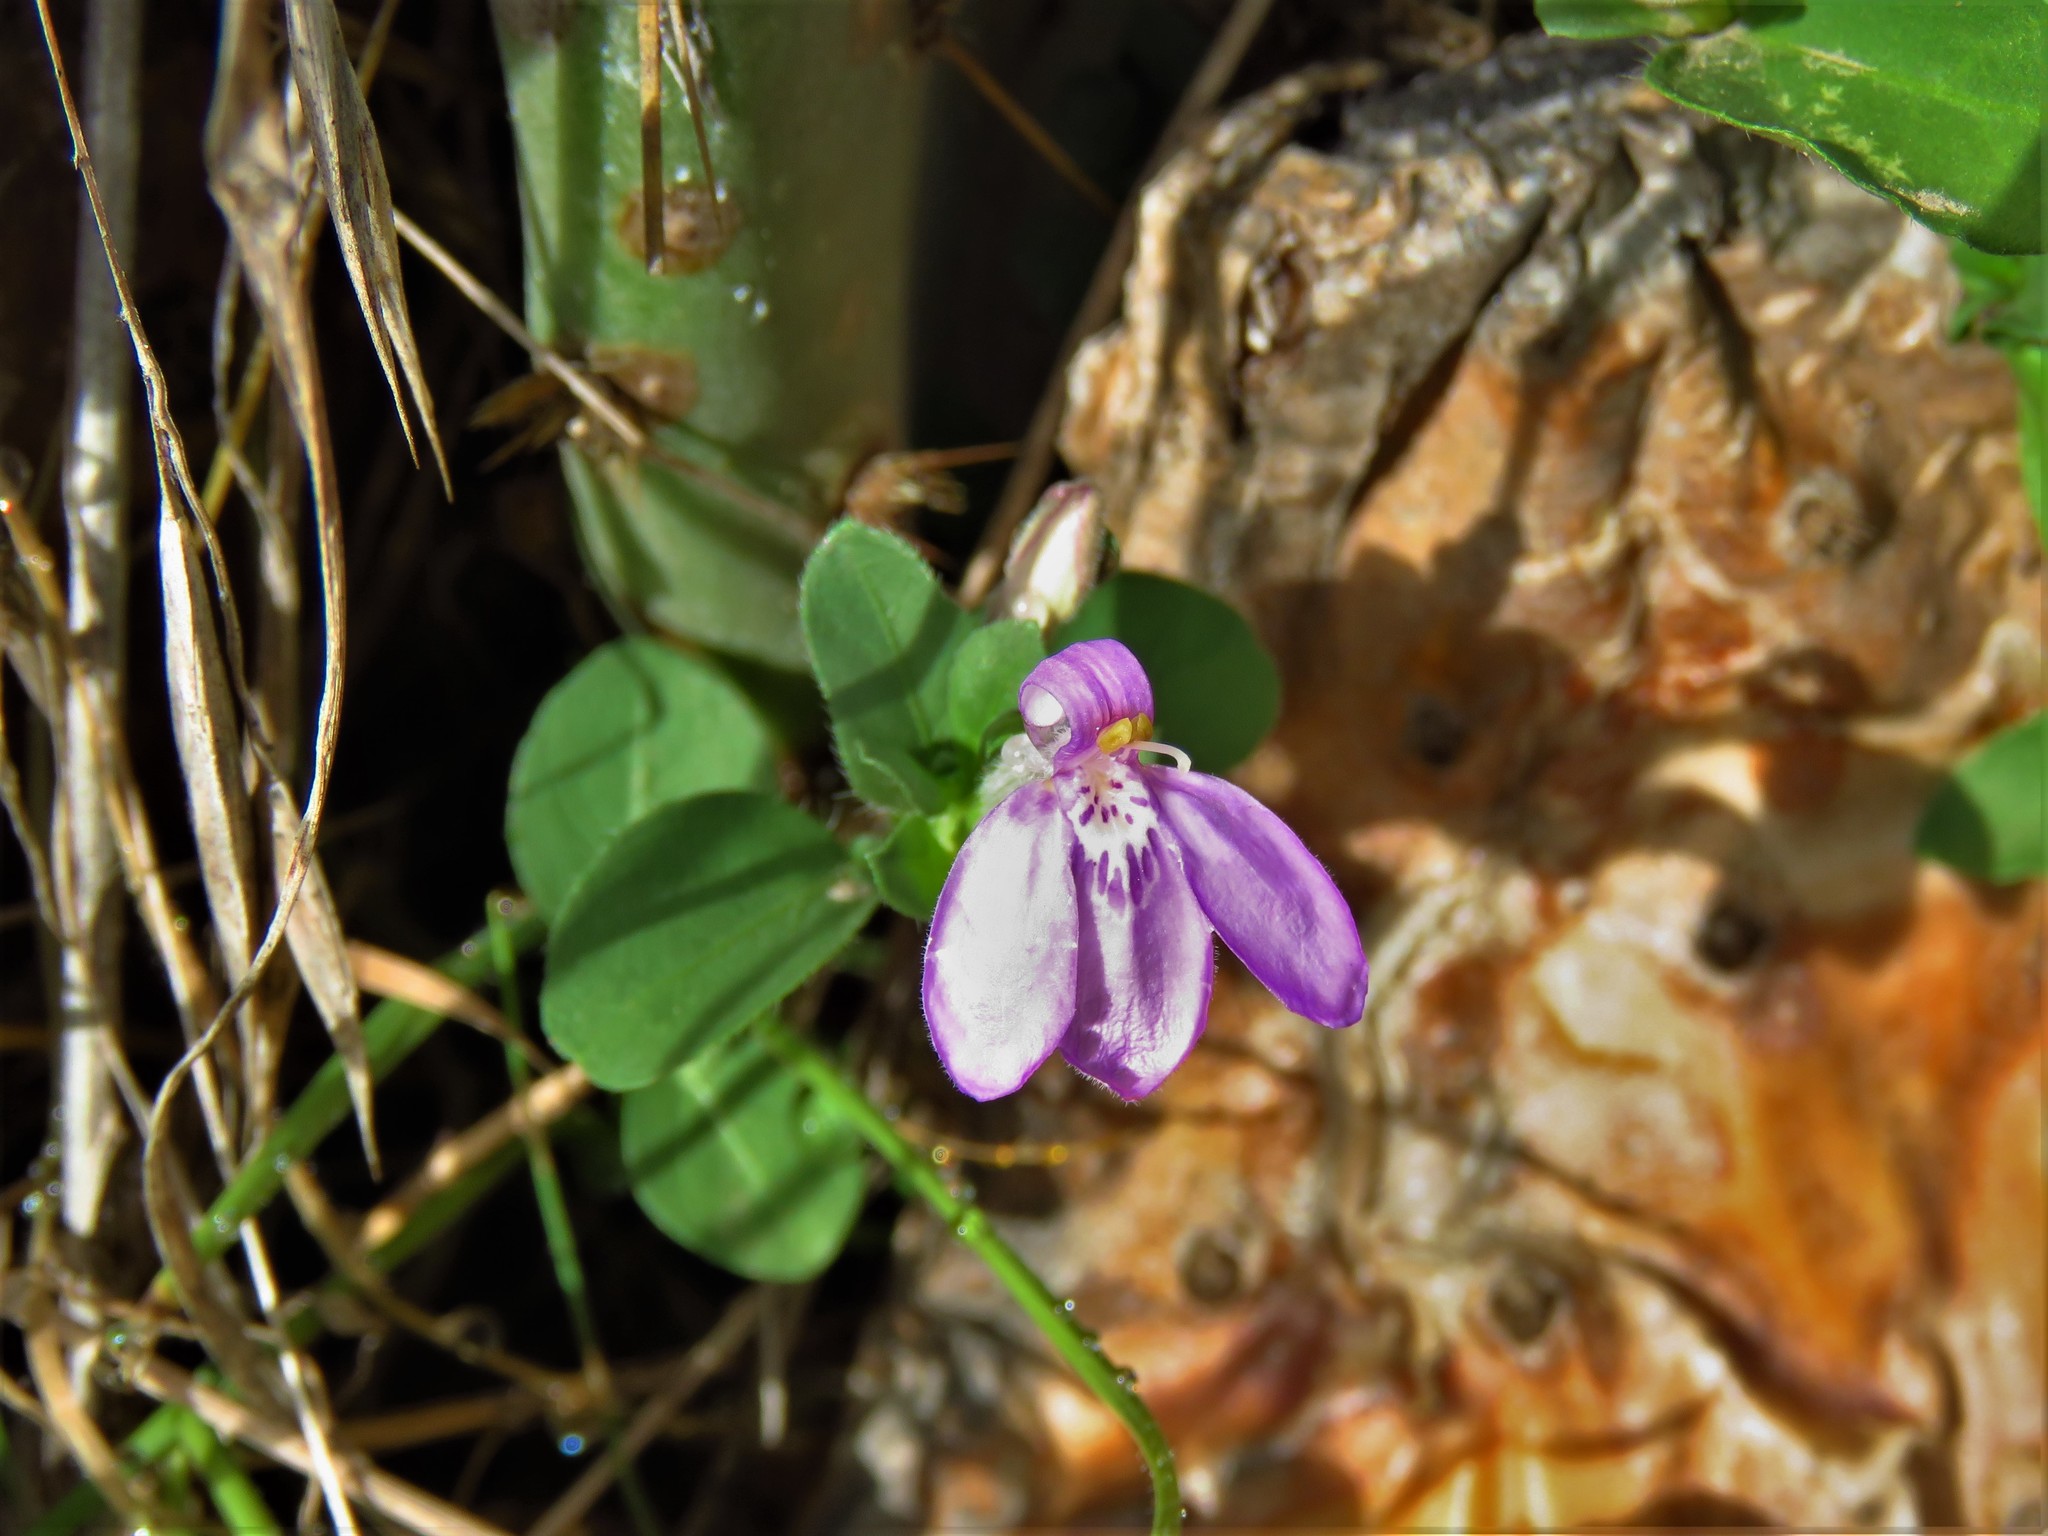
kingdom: Plantae
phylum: Tracheophyta
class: Magnoliopsida
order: Lamiales
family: Acanthaceae
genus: Justicia
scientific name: Justicia pilosella
